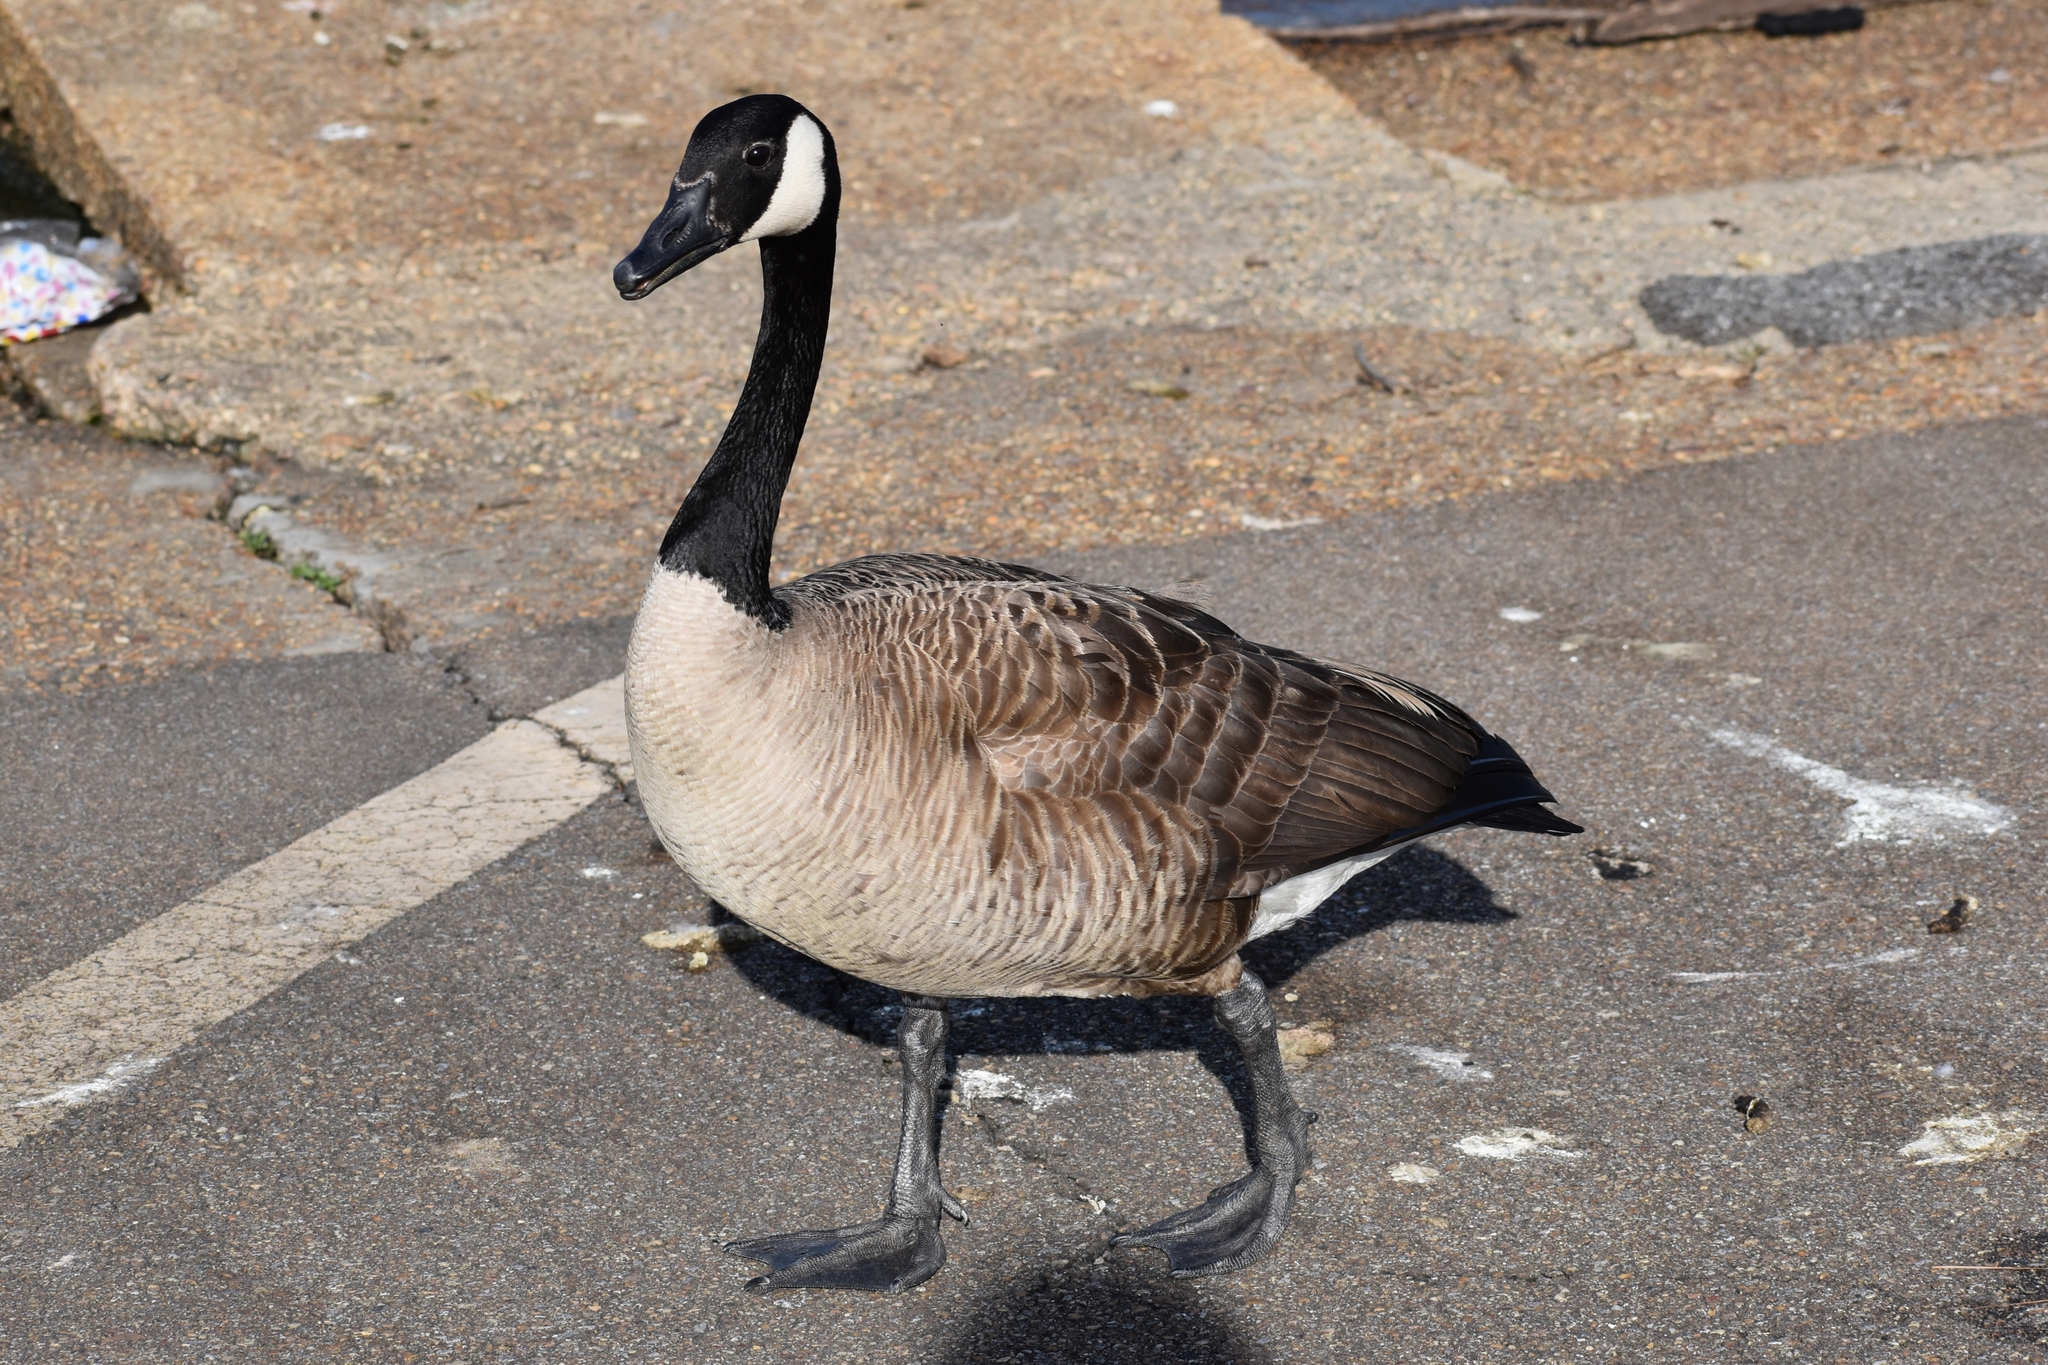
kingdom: Animalia
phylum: Chordata
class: Aves
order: Anseriformes
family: Anatidae
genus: Branta
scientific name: Branta canadensis
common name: Canada goose
